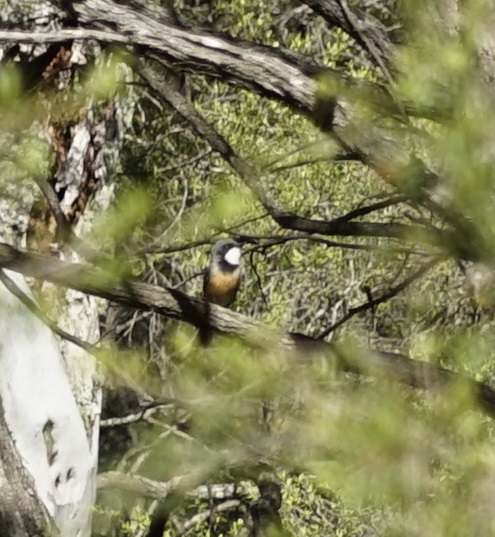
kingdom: Animalia
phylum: Chordata
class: Aves
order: Passeriformes
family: Meliphagidae
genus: Acanthorhynchus
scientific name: Acanthorhynchus tenuirostris
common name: Eastern spinebill
